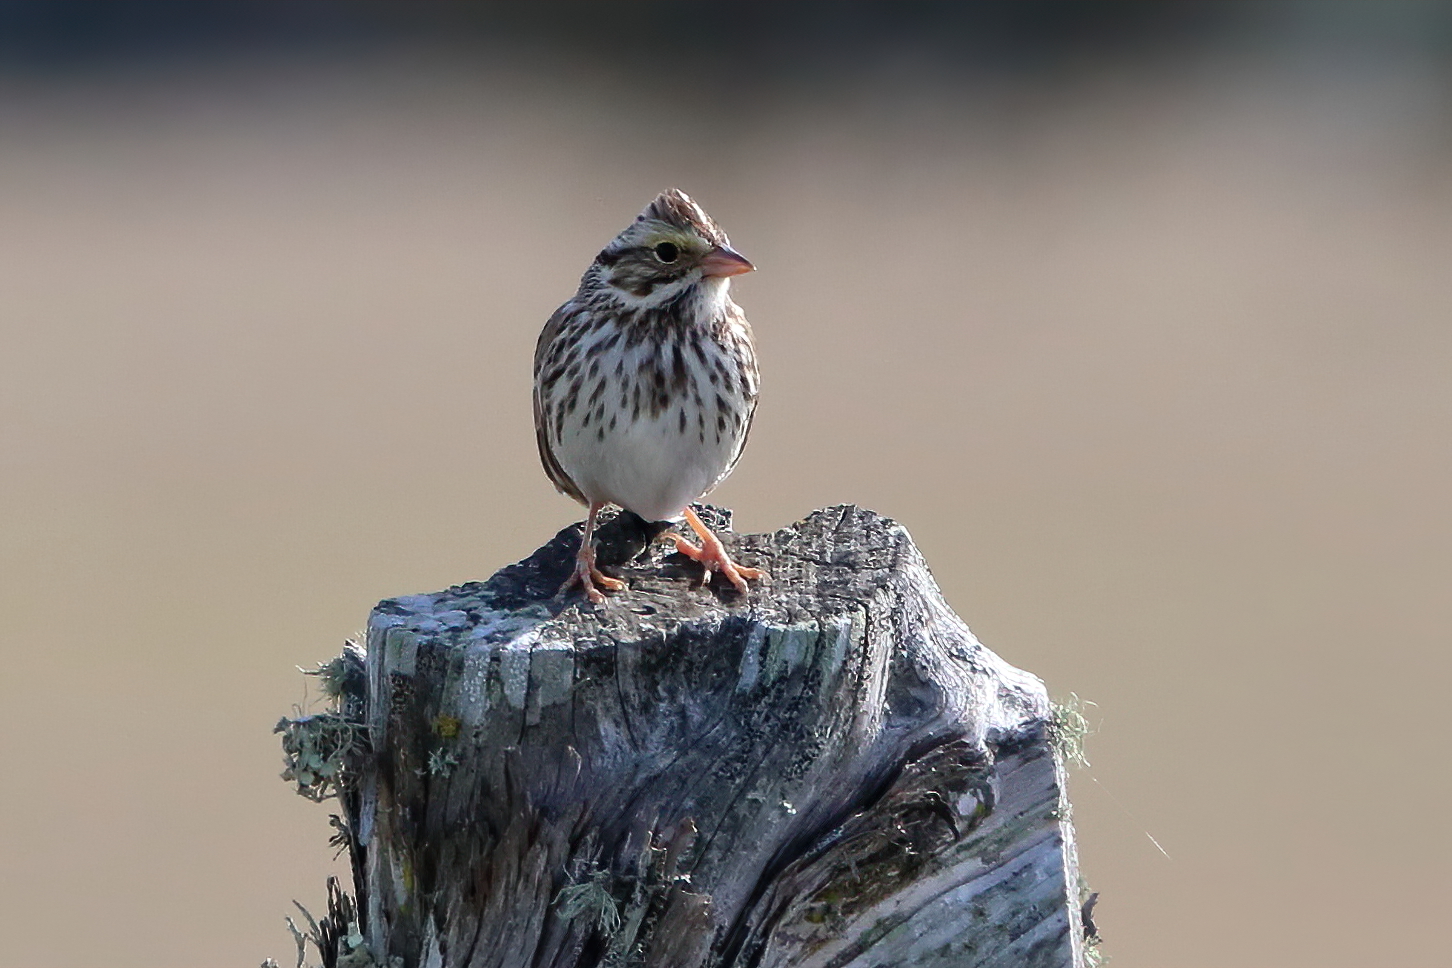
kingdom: Animalia
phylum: Chordata
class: Aves
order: Passeriformes
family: Passerellidae
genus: Passerculus
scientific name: Passerculus sandwichensis
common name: Savannah sparrow
